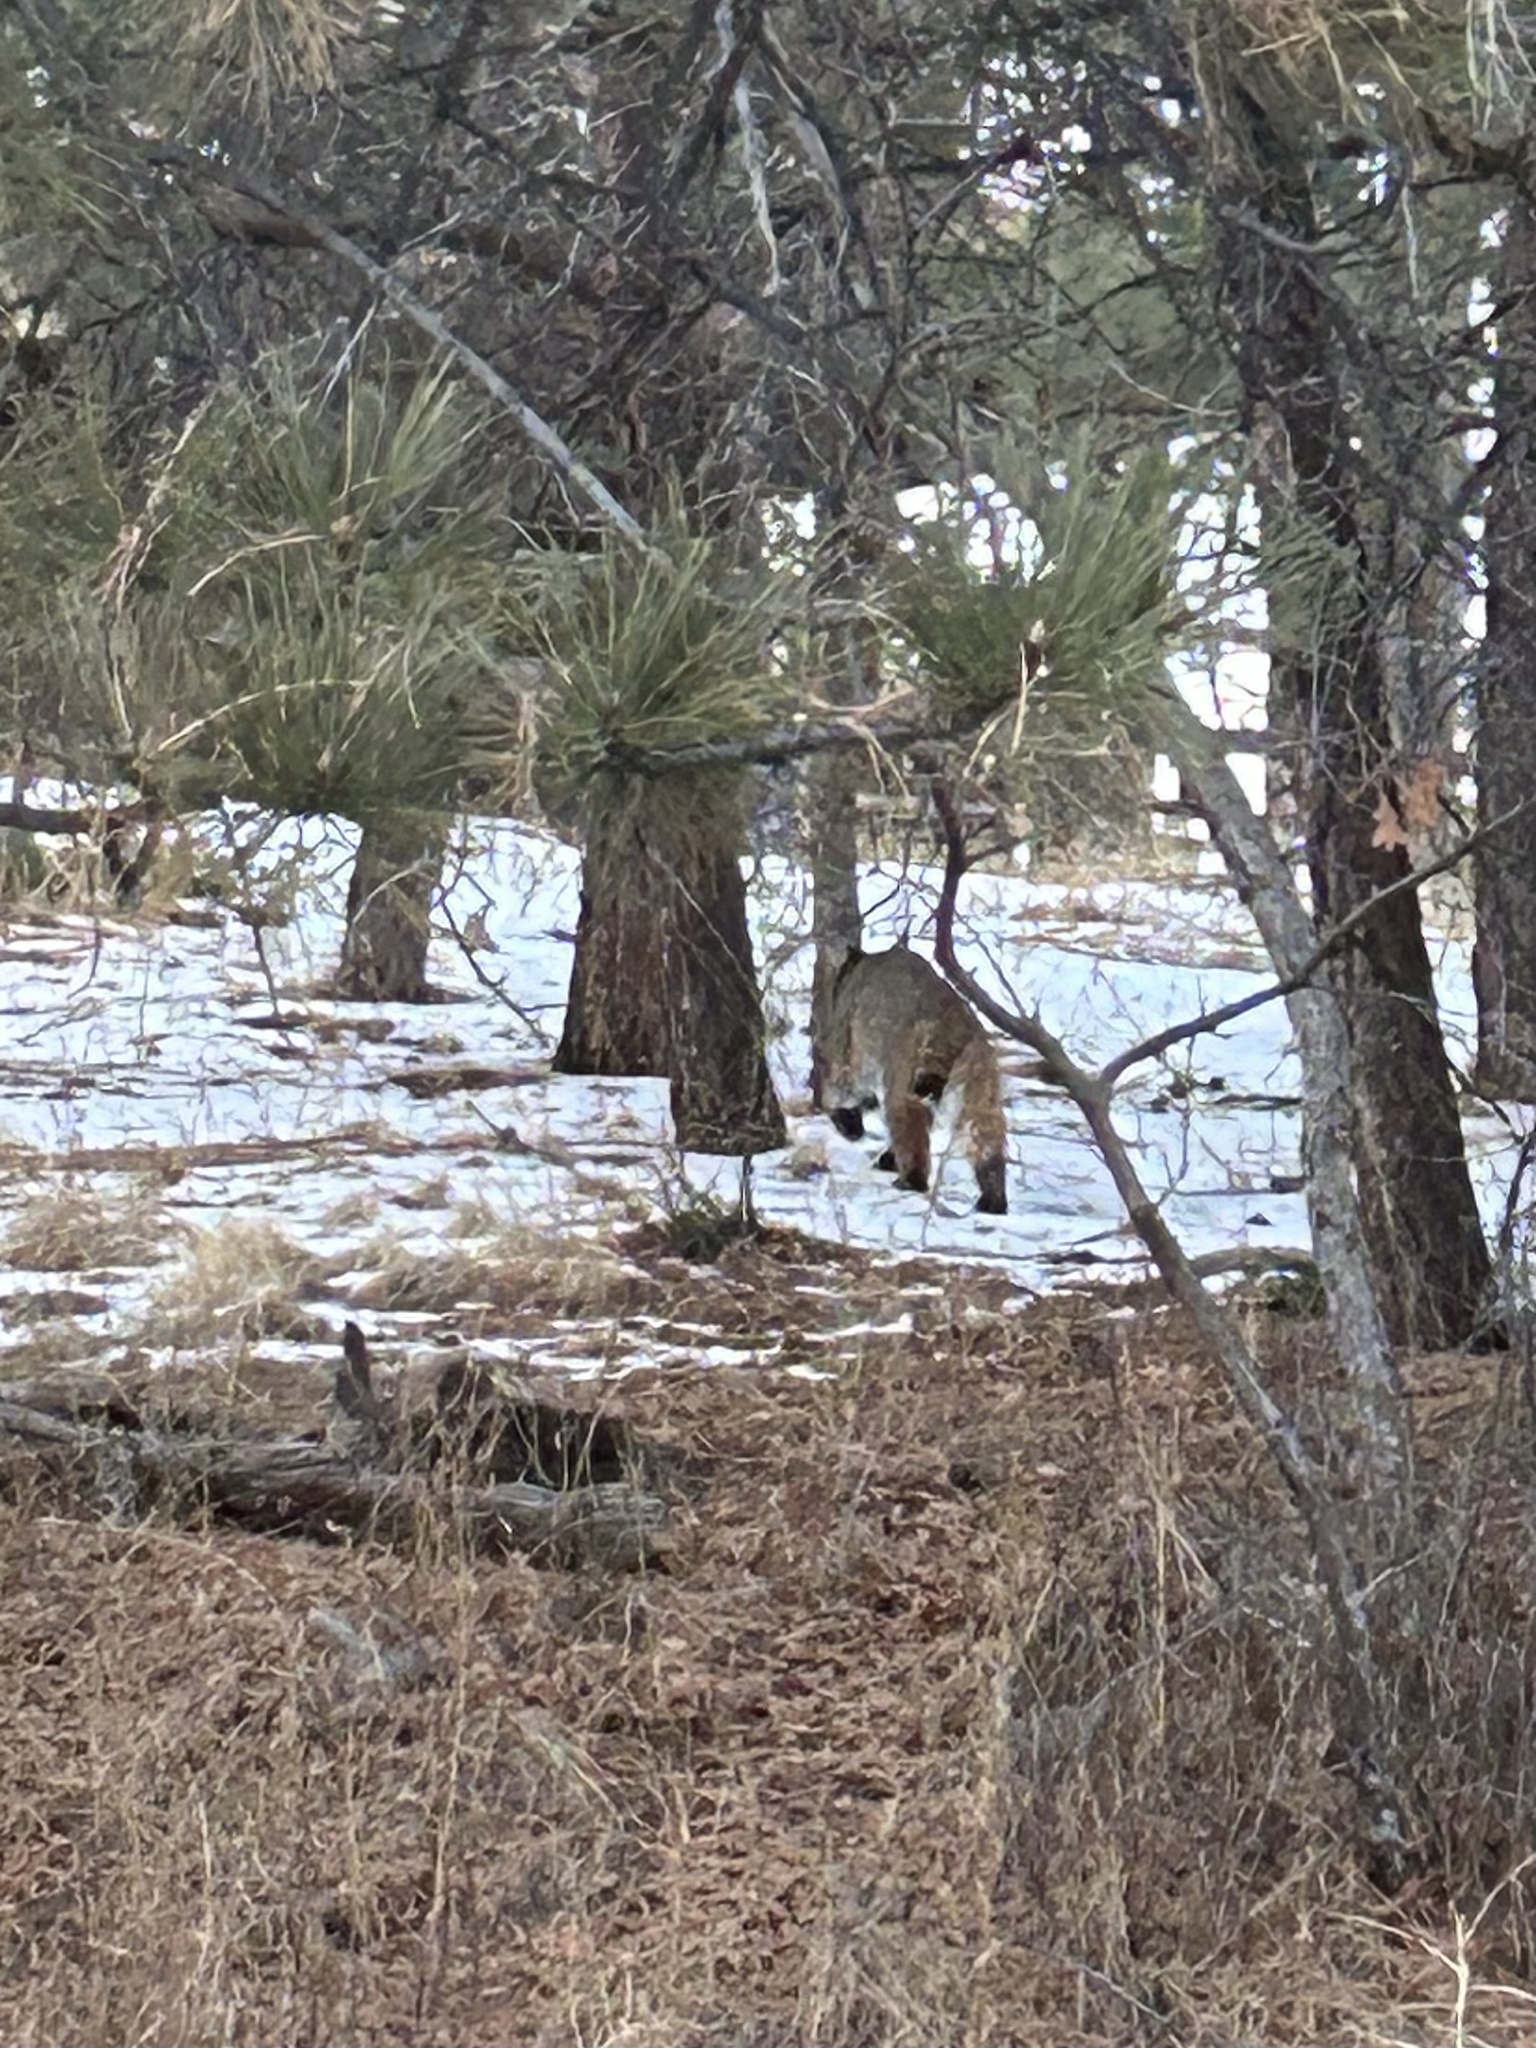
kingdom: Animalia
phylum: Chordata
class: Mammalia
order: Carnivora
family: Felidae
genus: Lynx
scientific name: Lynx rufus
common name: Bobcat
